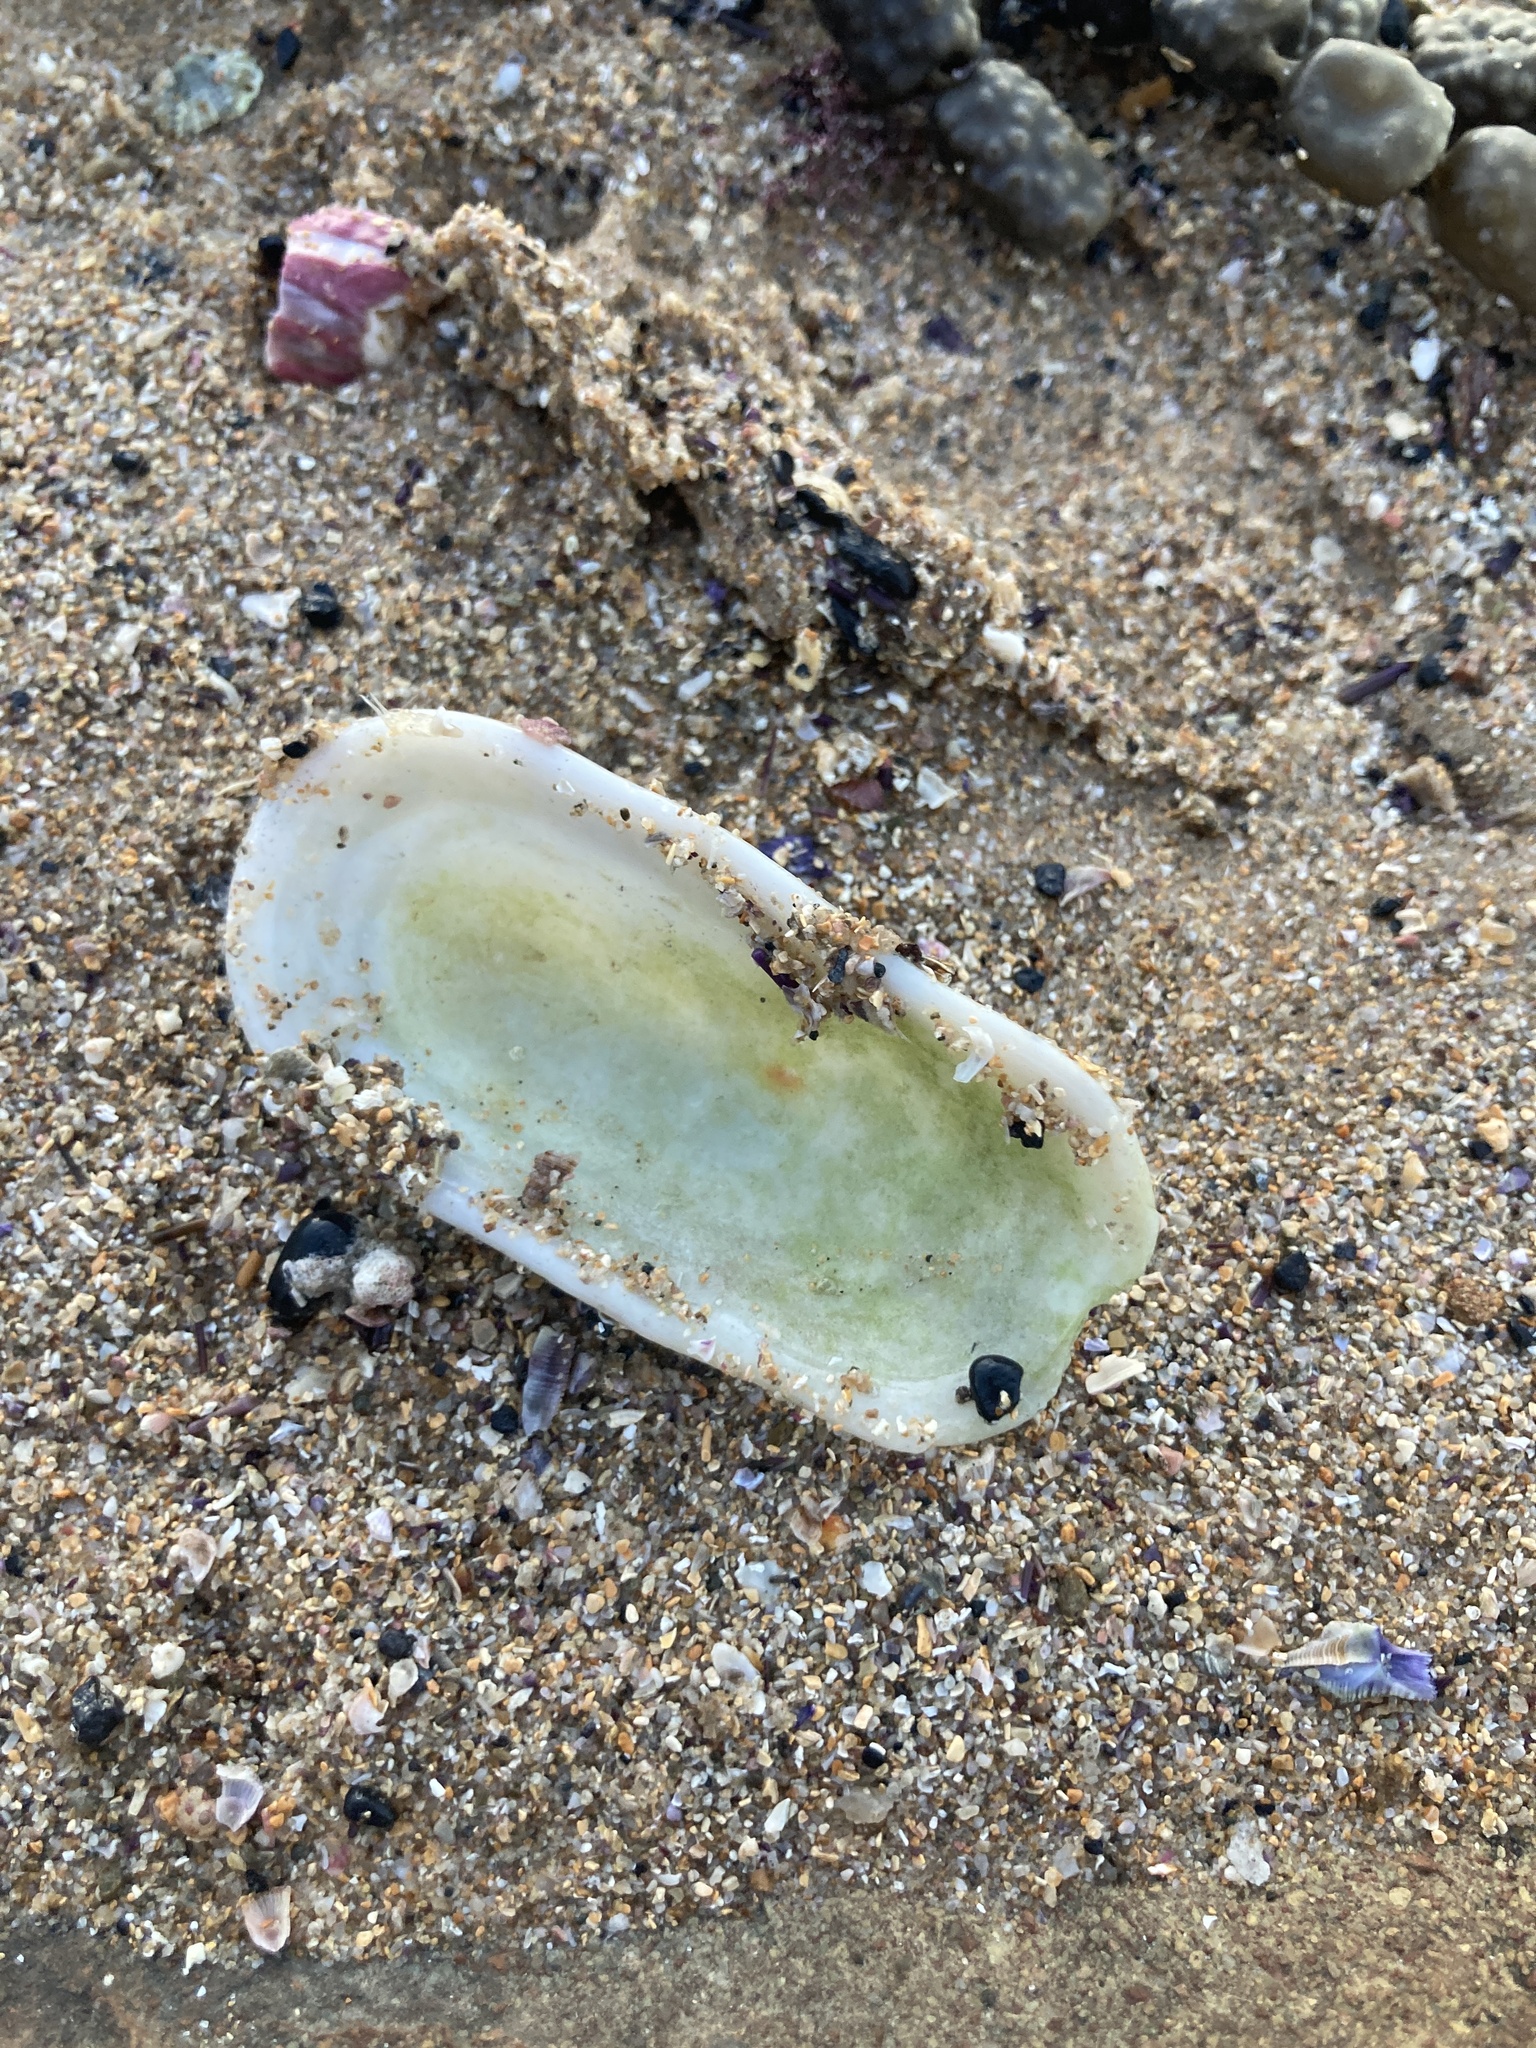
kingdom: Animalia
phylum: Mollusca
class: Gastropoda
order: Lepetellida
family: Fissurellidae
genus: Scutus
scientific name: Scutus antipodes
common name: Duckbill shell
